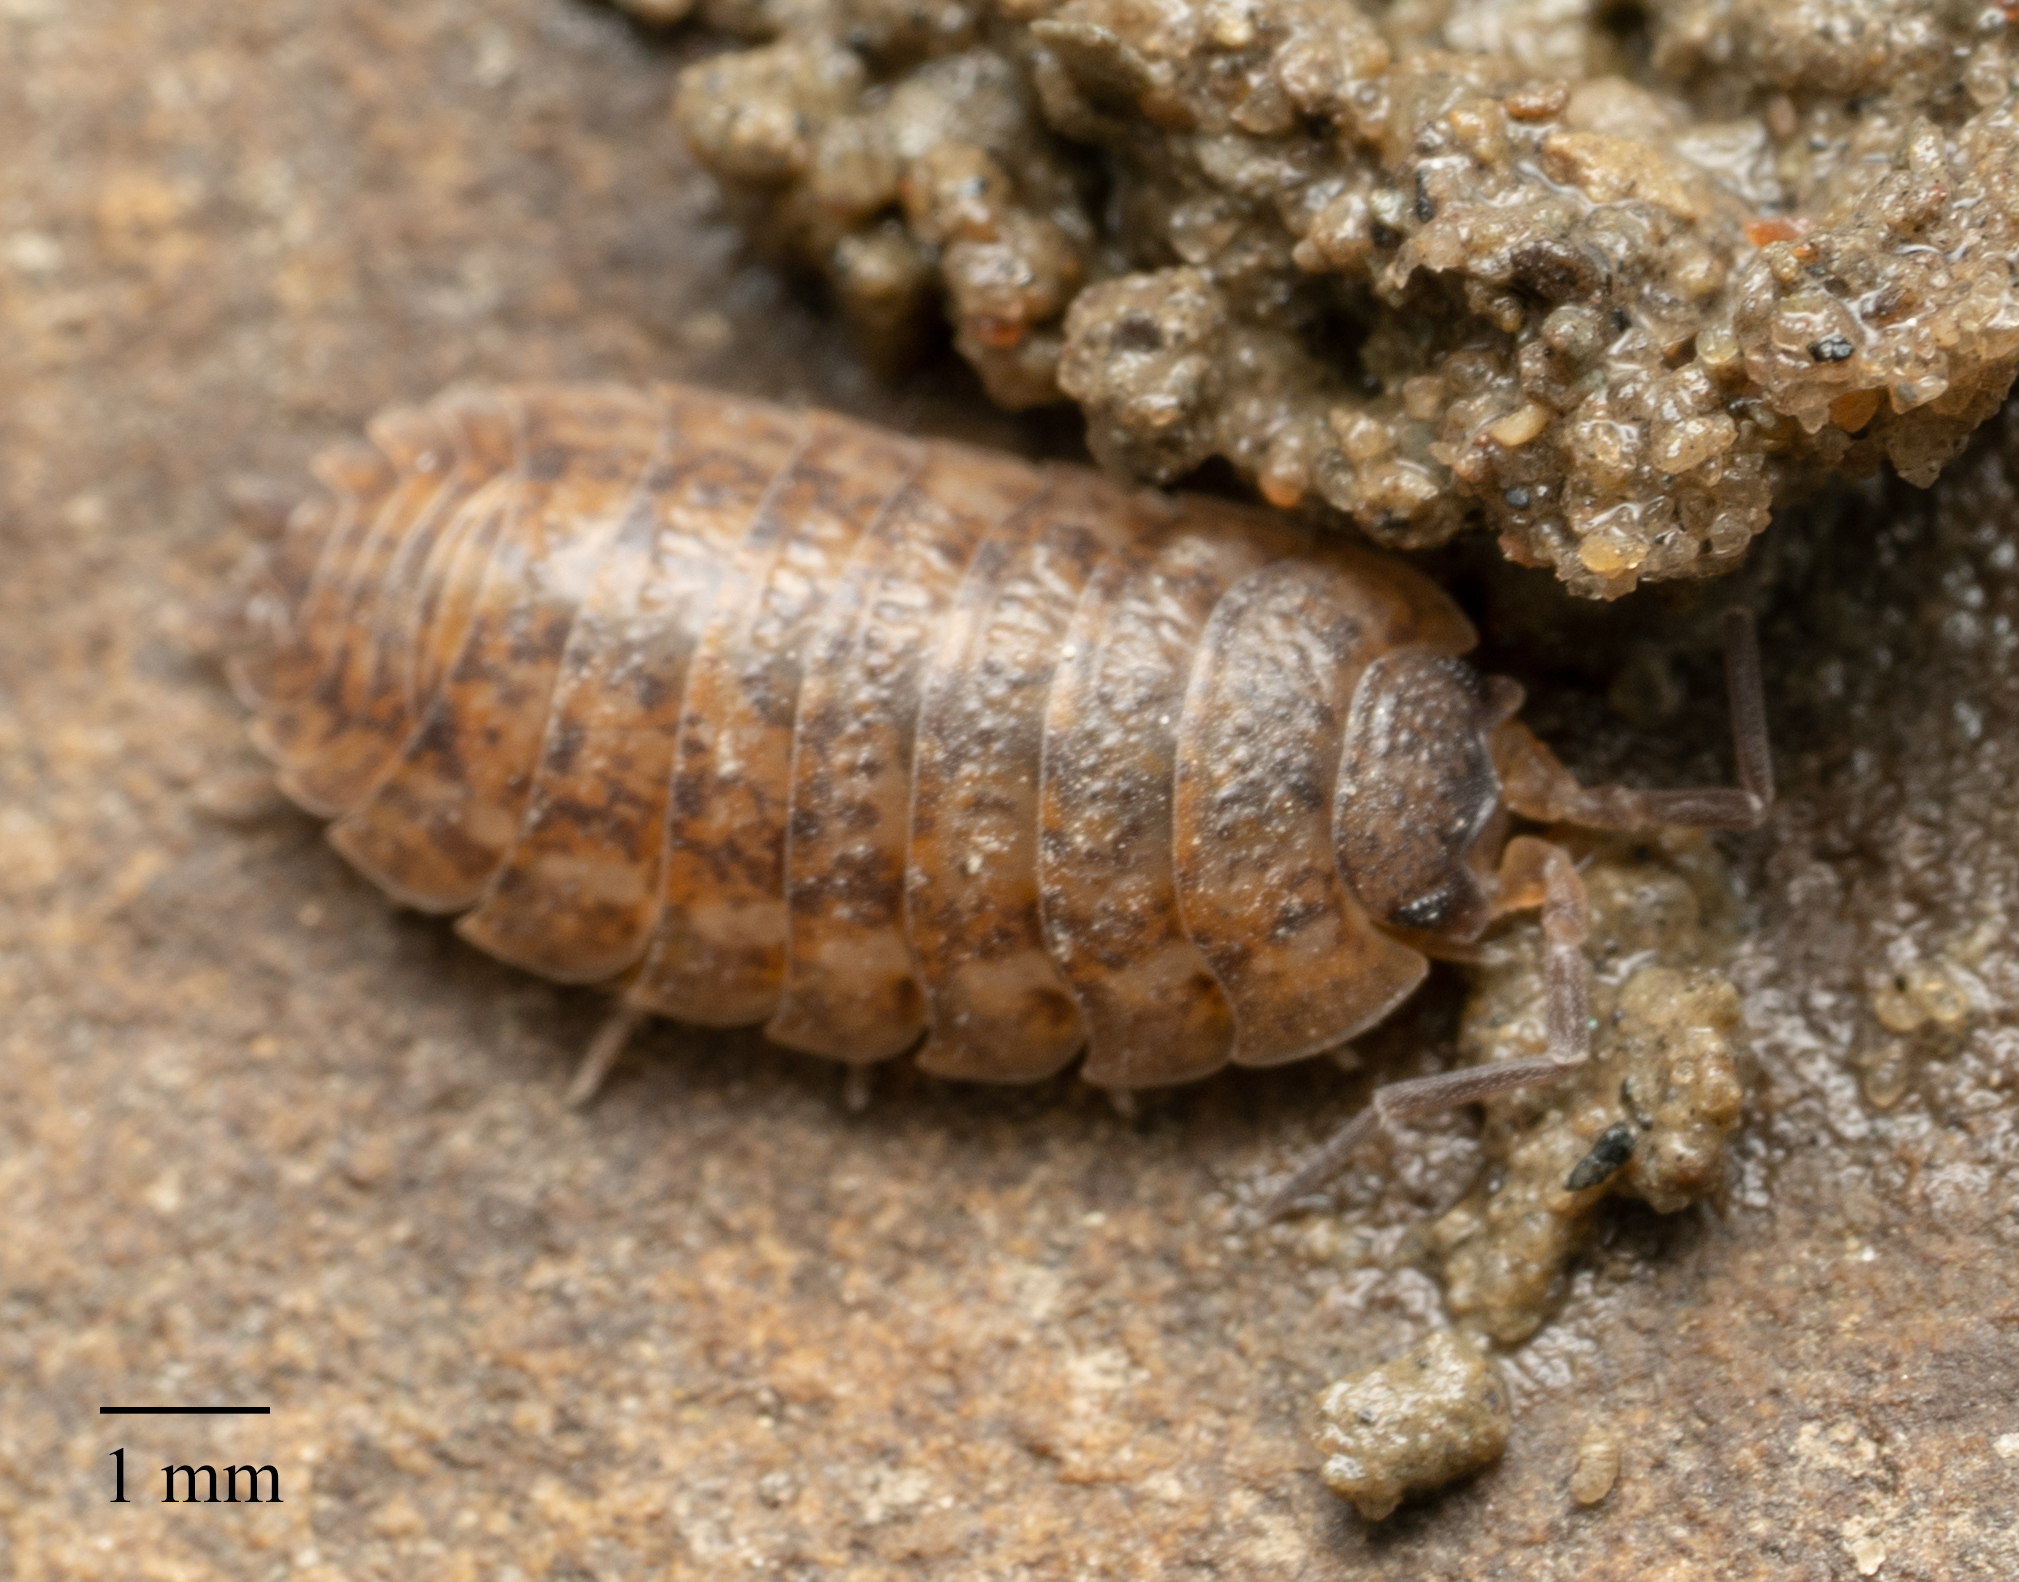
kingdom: Animalia
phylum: Arthropoda
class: Malacostraca
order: Isopoda
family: Trachelipodidae
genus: Trachelipus
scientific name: Trachelipus rathkii
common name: Isopod
